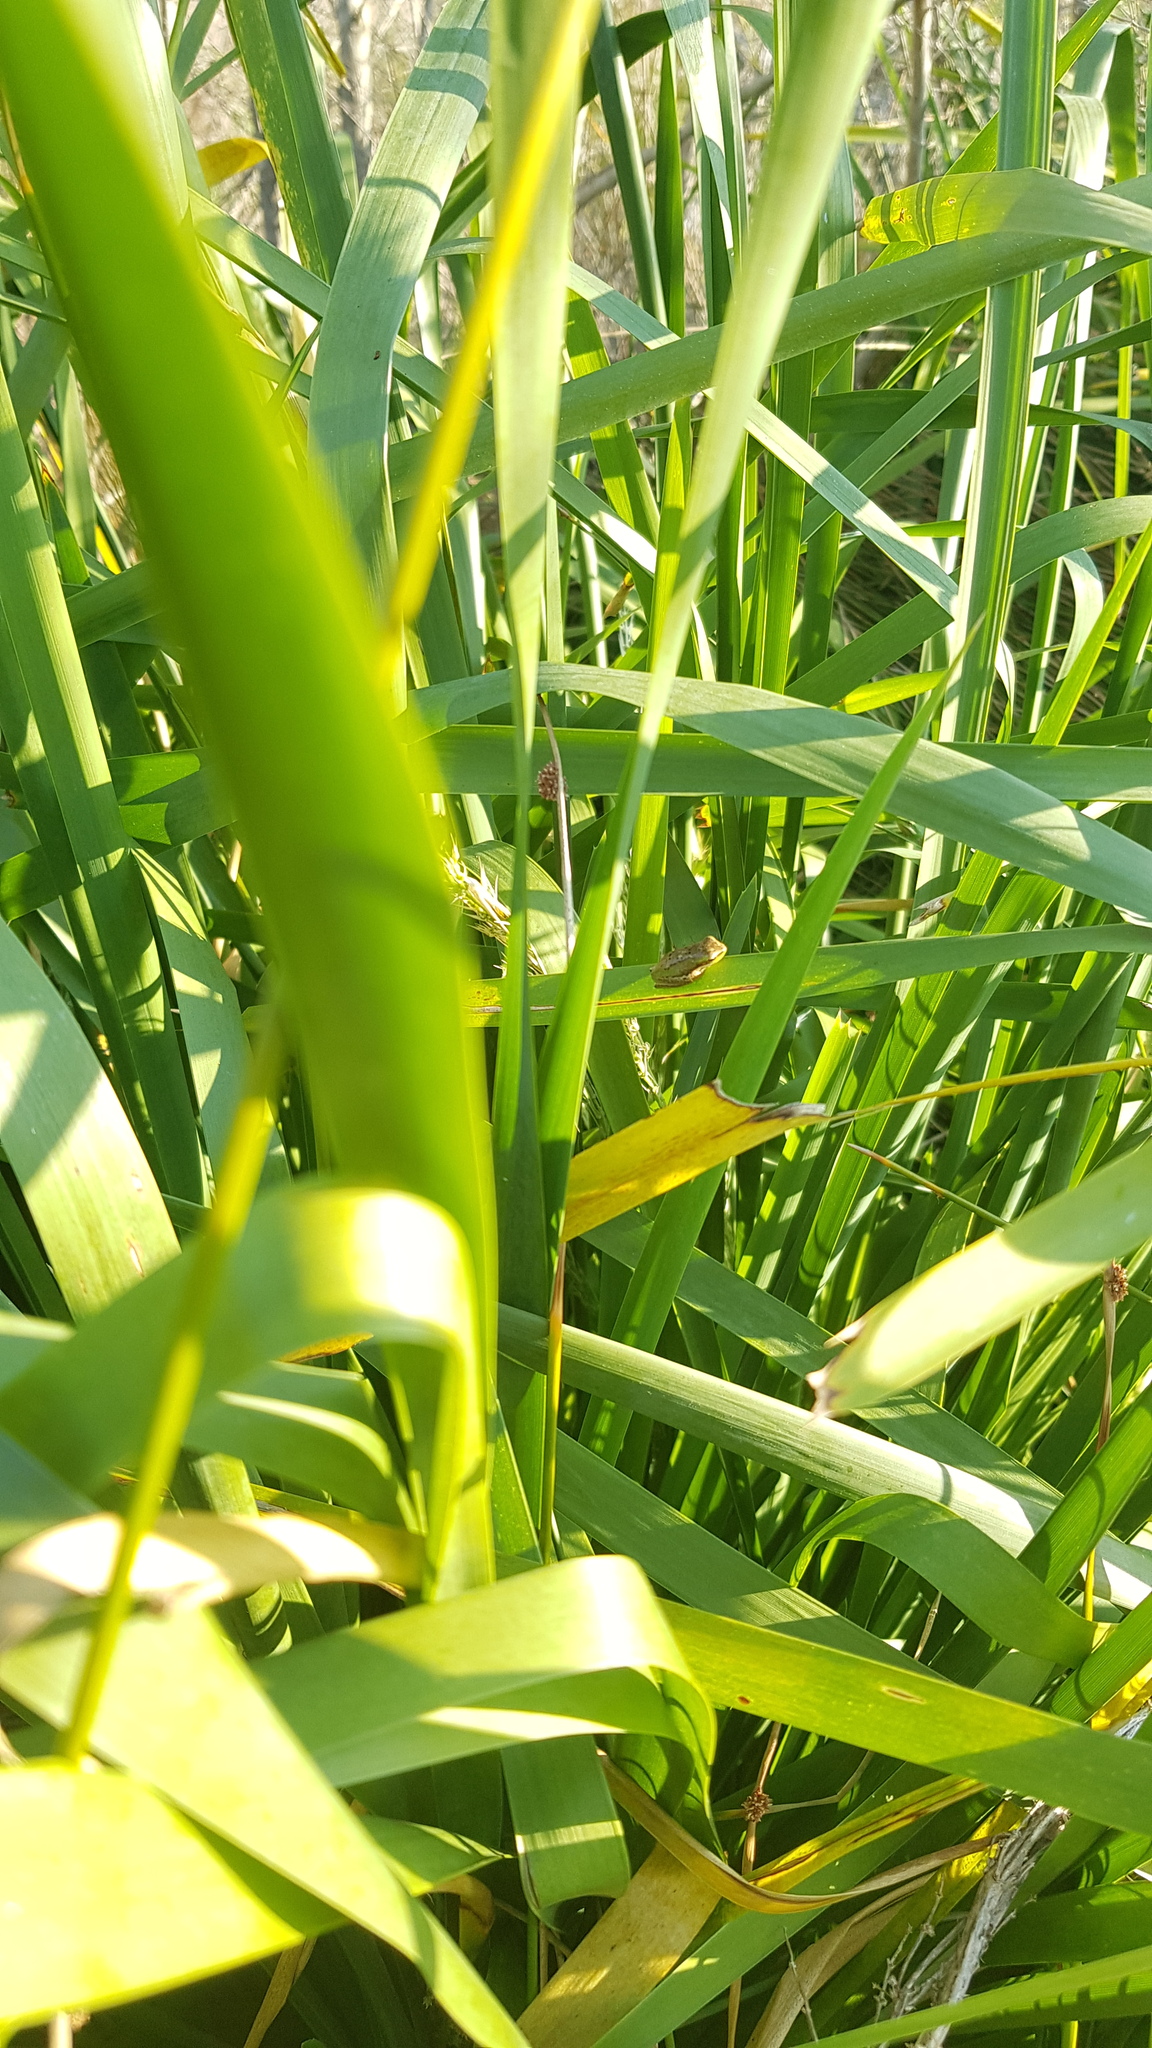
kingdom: Animalia
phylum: Chordata
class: Amphibia
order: Anura
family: Pelodryadidae
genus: Litoria
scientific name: Litoria fallax
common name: Eastern dwarf treefrog
